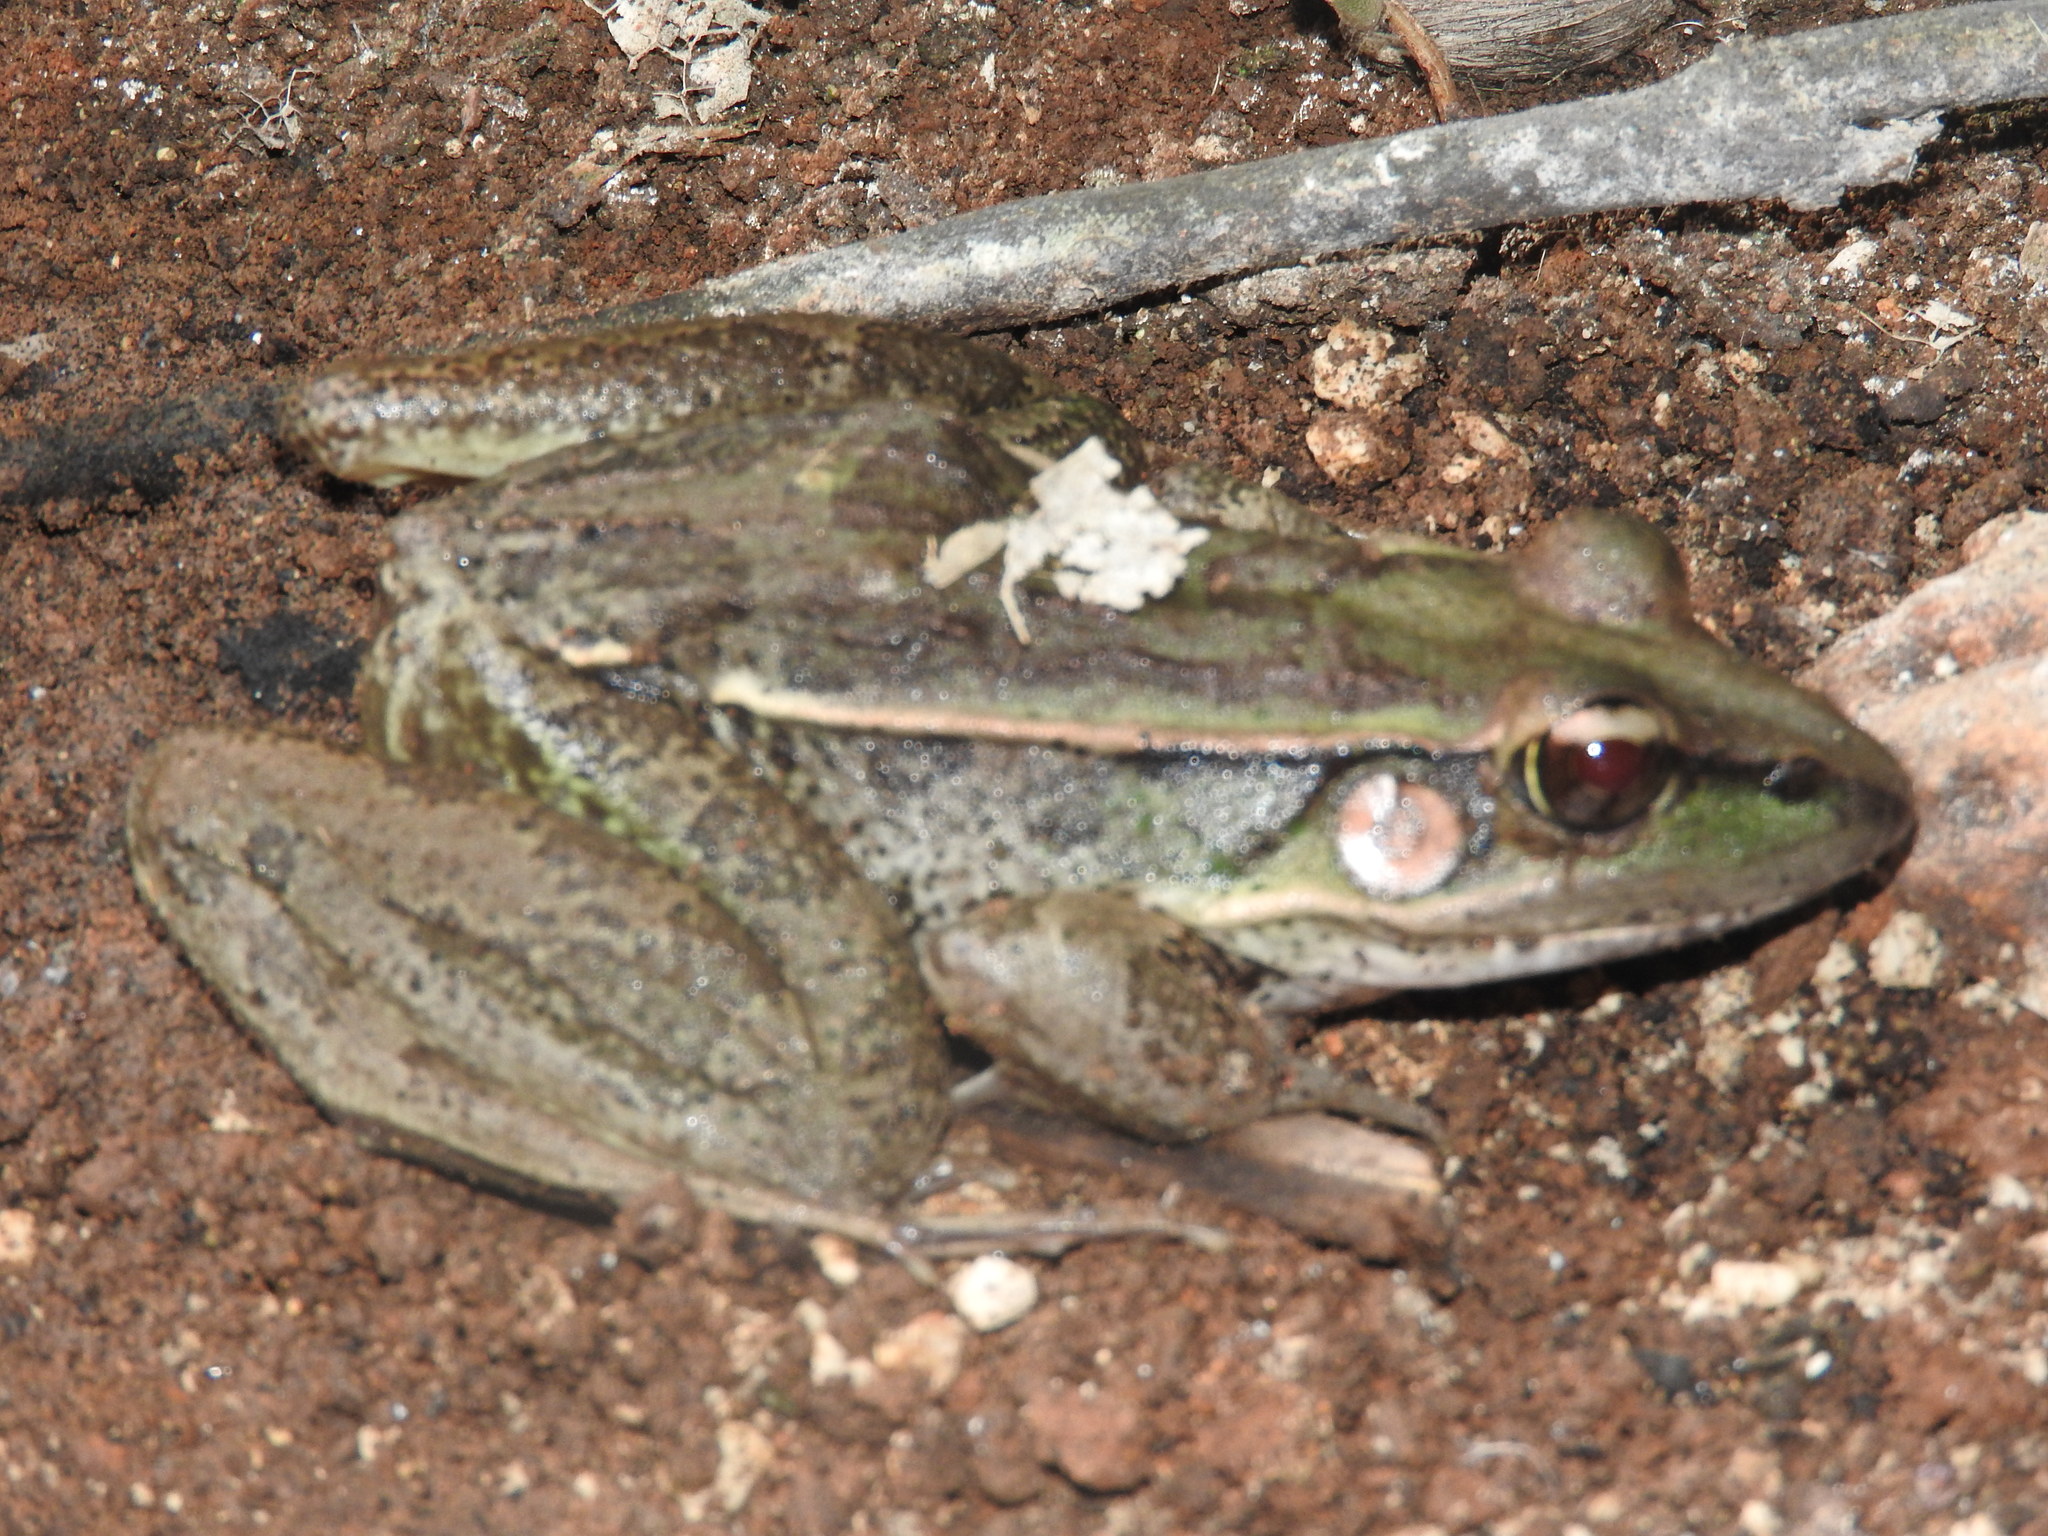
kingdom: Animalia
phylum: Chordata
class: Amphibia
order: Anura
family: Ranidae
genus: Lithobates
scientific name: Lithobates brownorum
